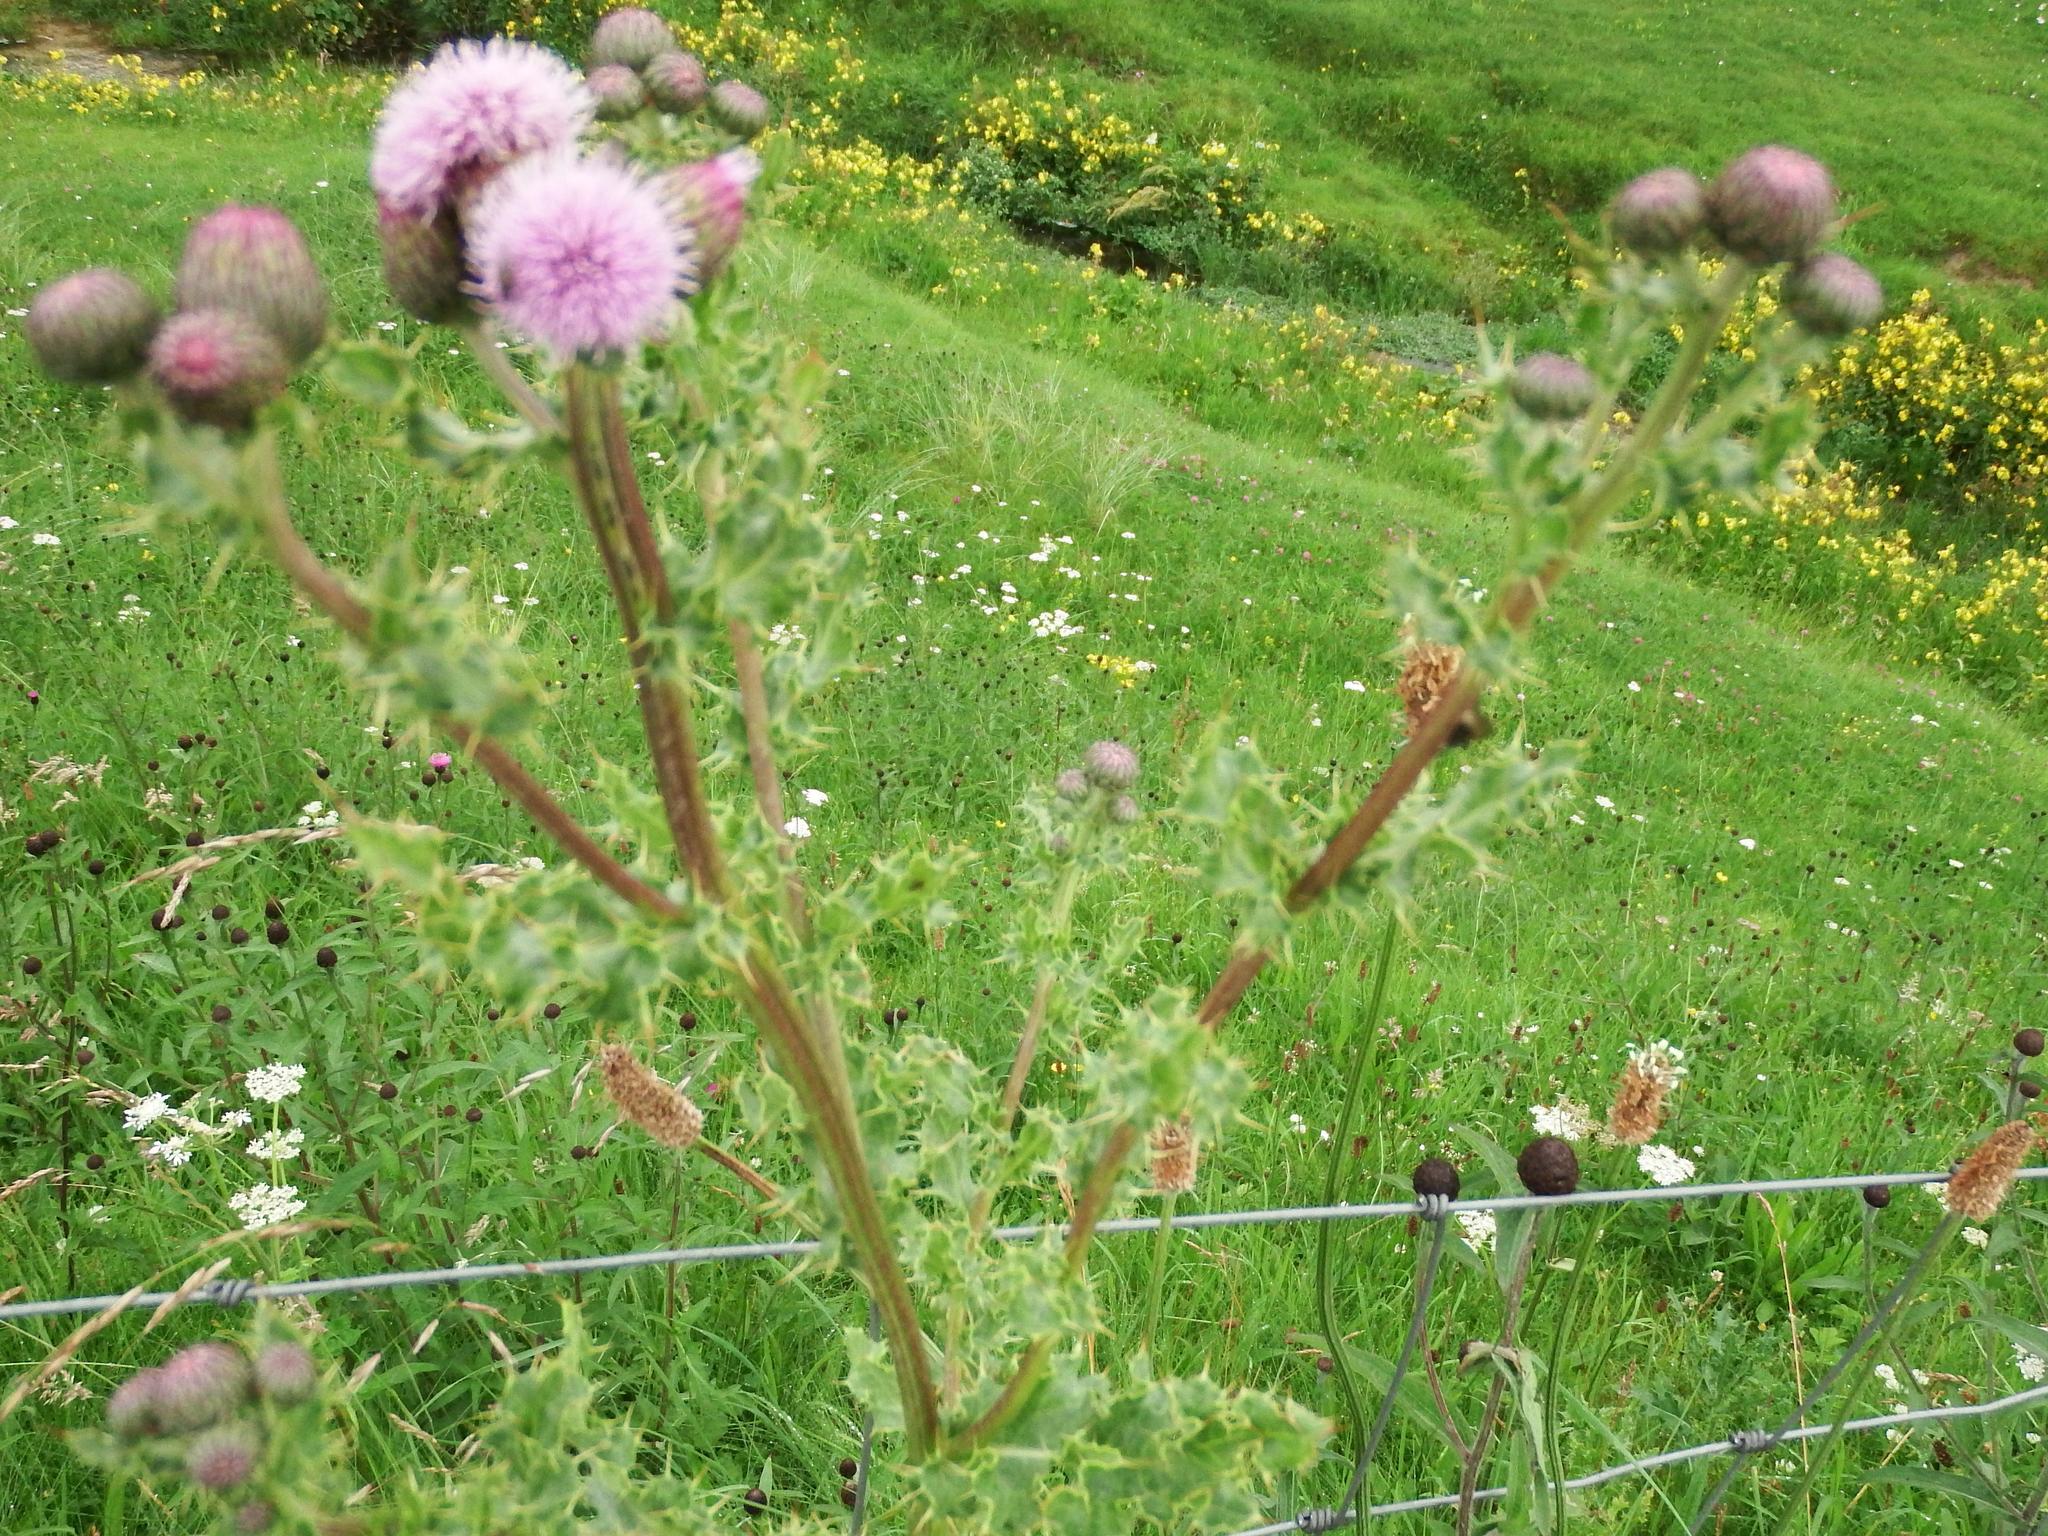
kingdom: Plantae
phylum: Tracheophyta
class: Magnoliopsida
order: Asterales
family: Asteraceae
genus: Cirsium
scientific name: Cirsium arvense
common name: Creeping thistle
